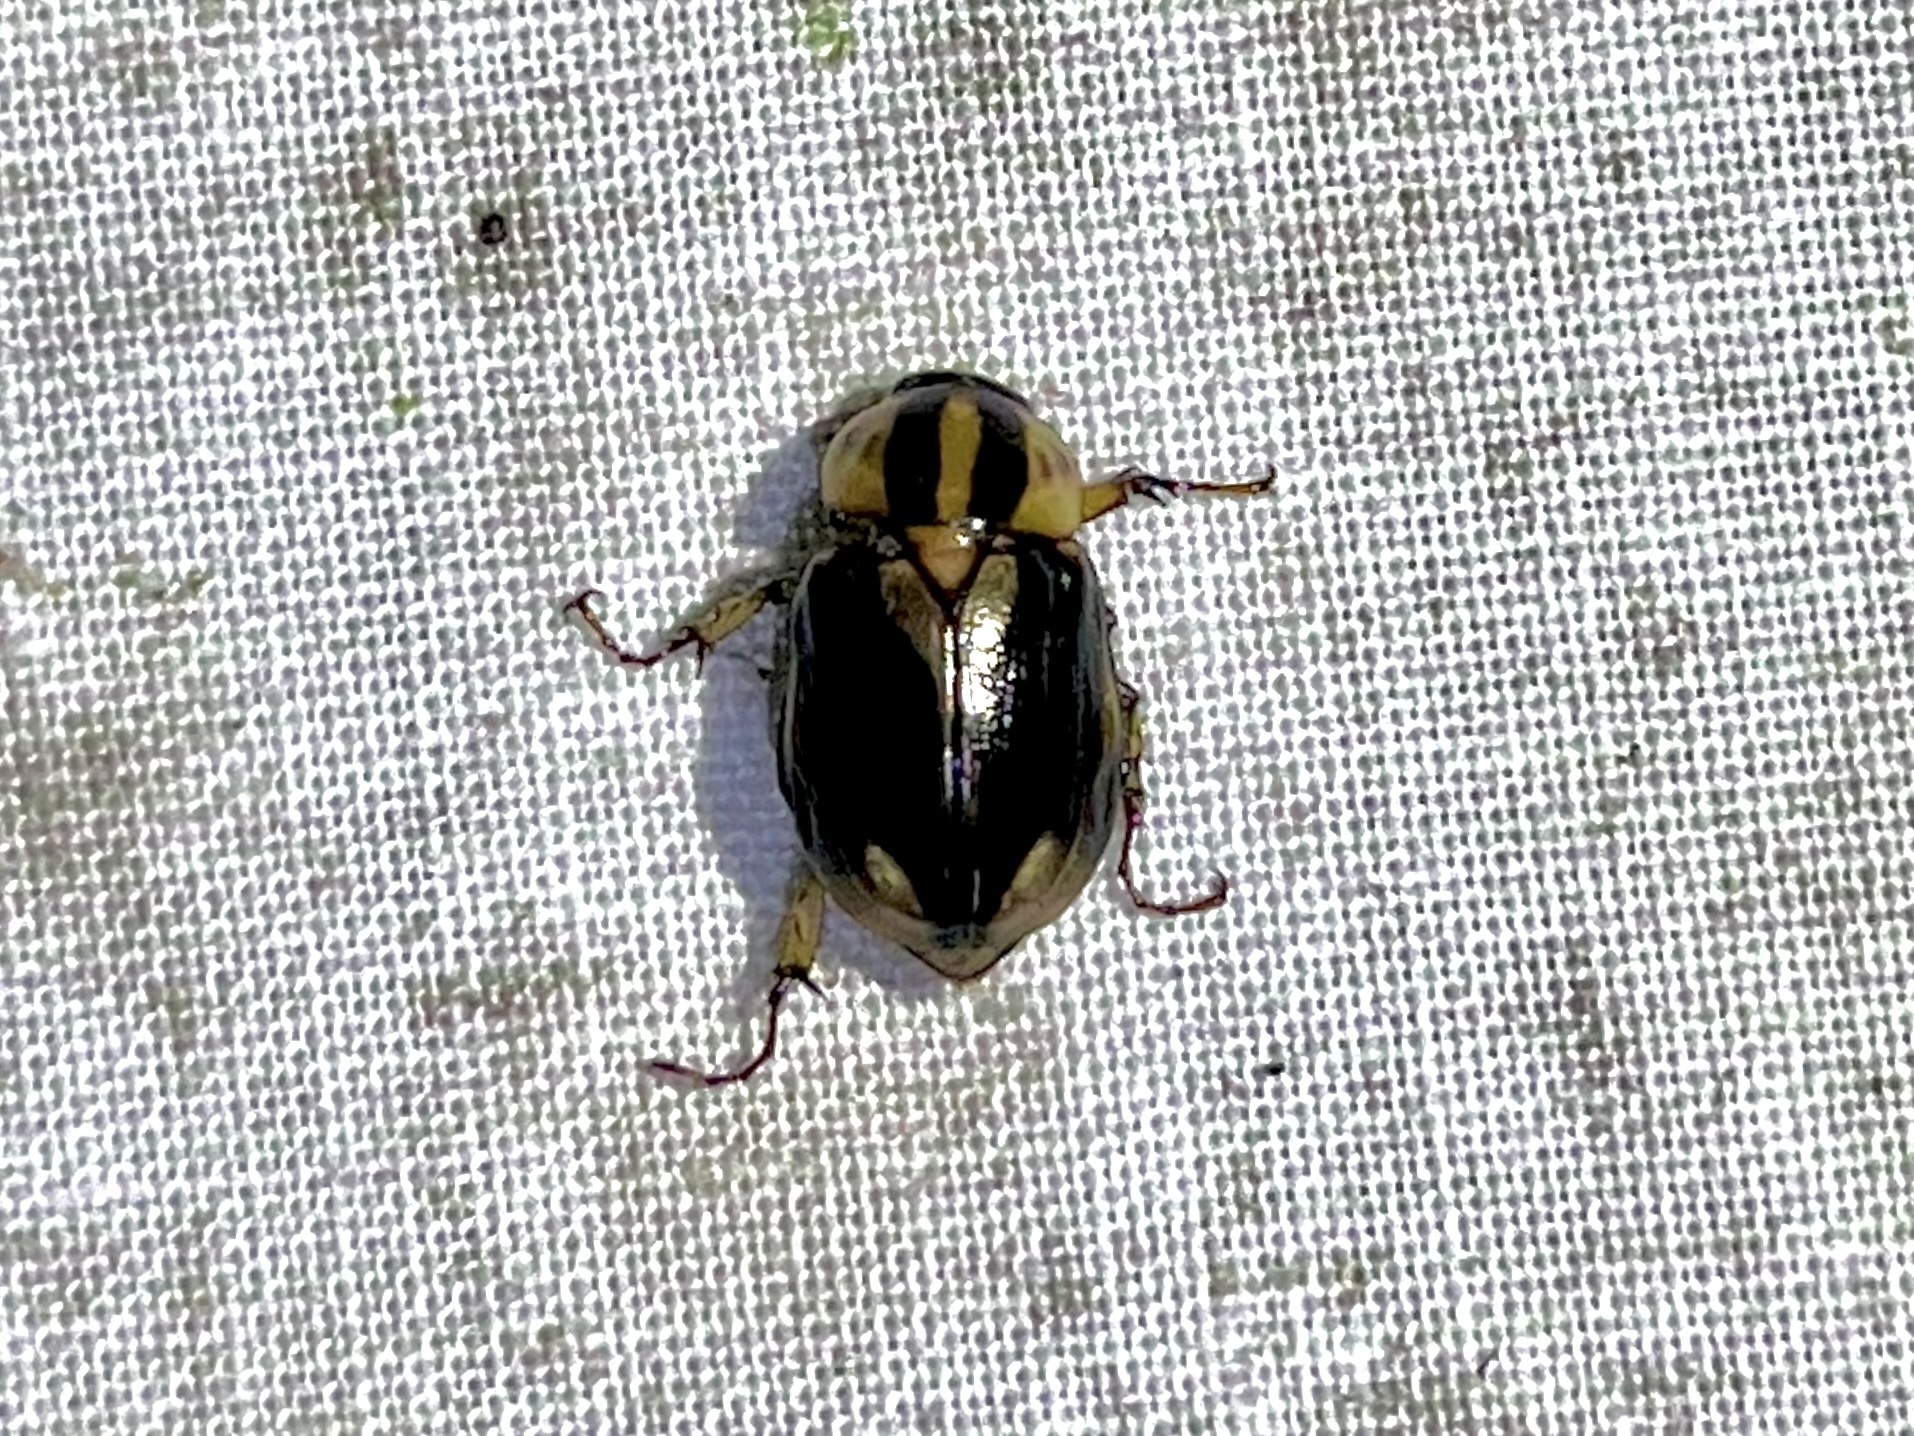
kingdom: Animalia
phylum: Arthropoda
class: Insecta
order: Coleoptera
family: Scarabaeidae
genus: Cyclocephala
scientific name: Cyclocephala amazona
